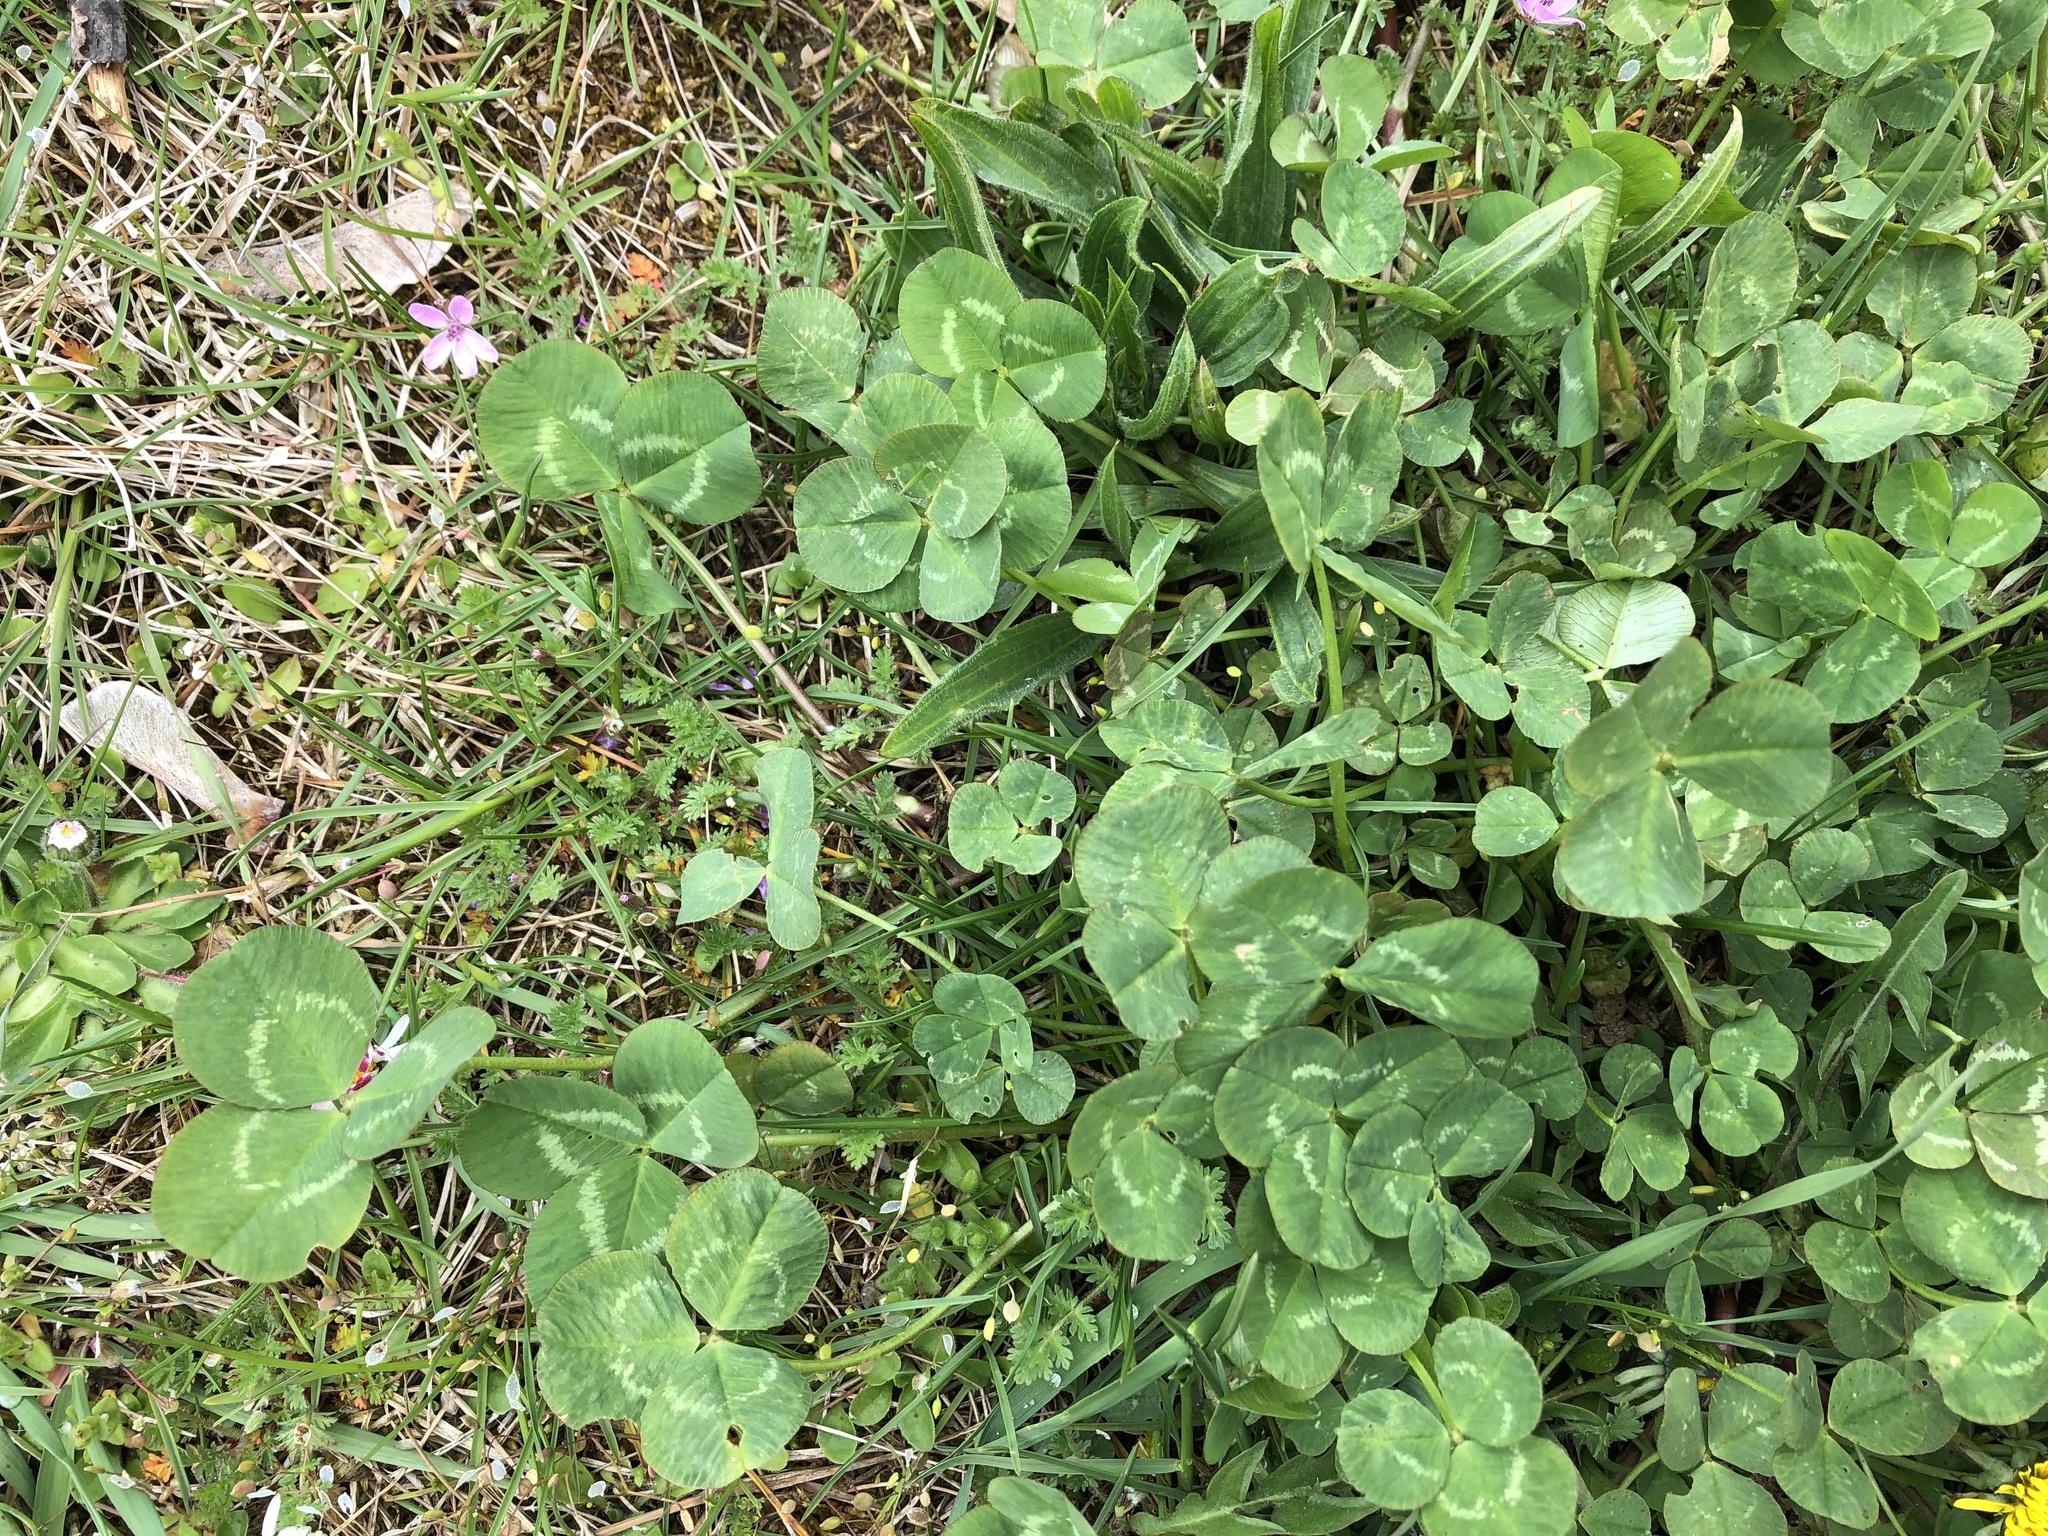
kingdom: Plantae
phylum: Tracheophyta
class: Magnoliopsida
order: Fabales
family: Fabaceae
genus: Trifolium
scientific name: Trifolium repens
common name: White clover
